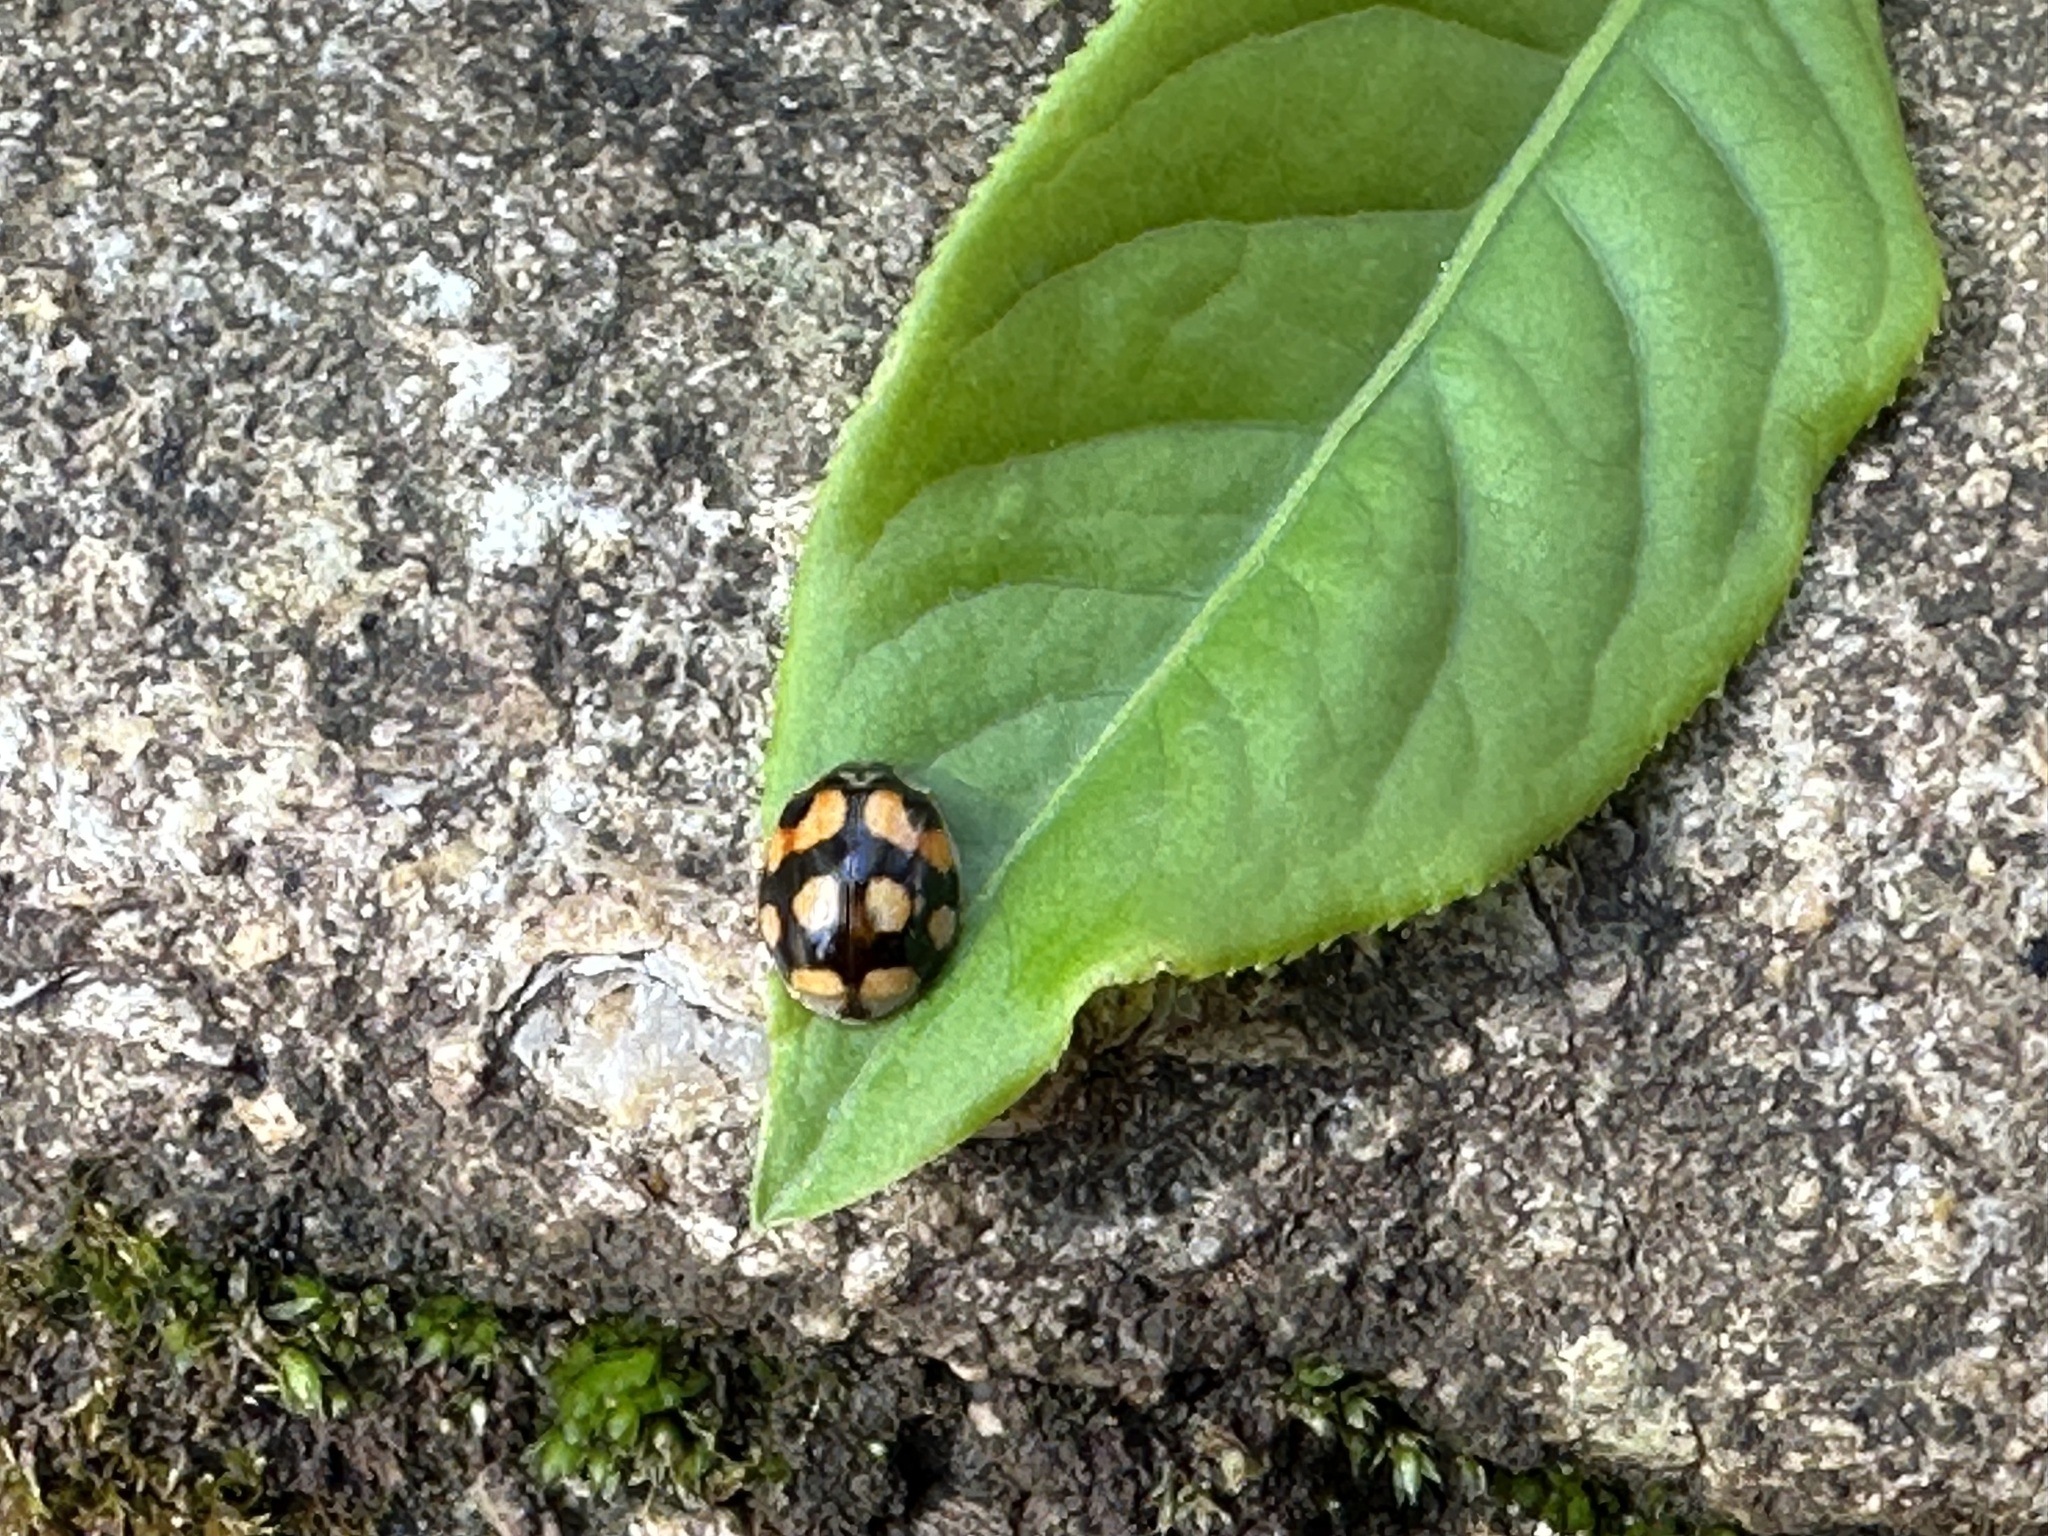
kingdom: Animalia
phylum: Arthropoda
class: Insecta
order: Coleoptera
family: Coccinellidae
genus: Adalia
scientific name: Adalia decempunctata
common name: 10-spot ladybird
